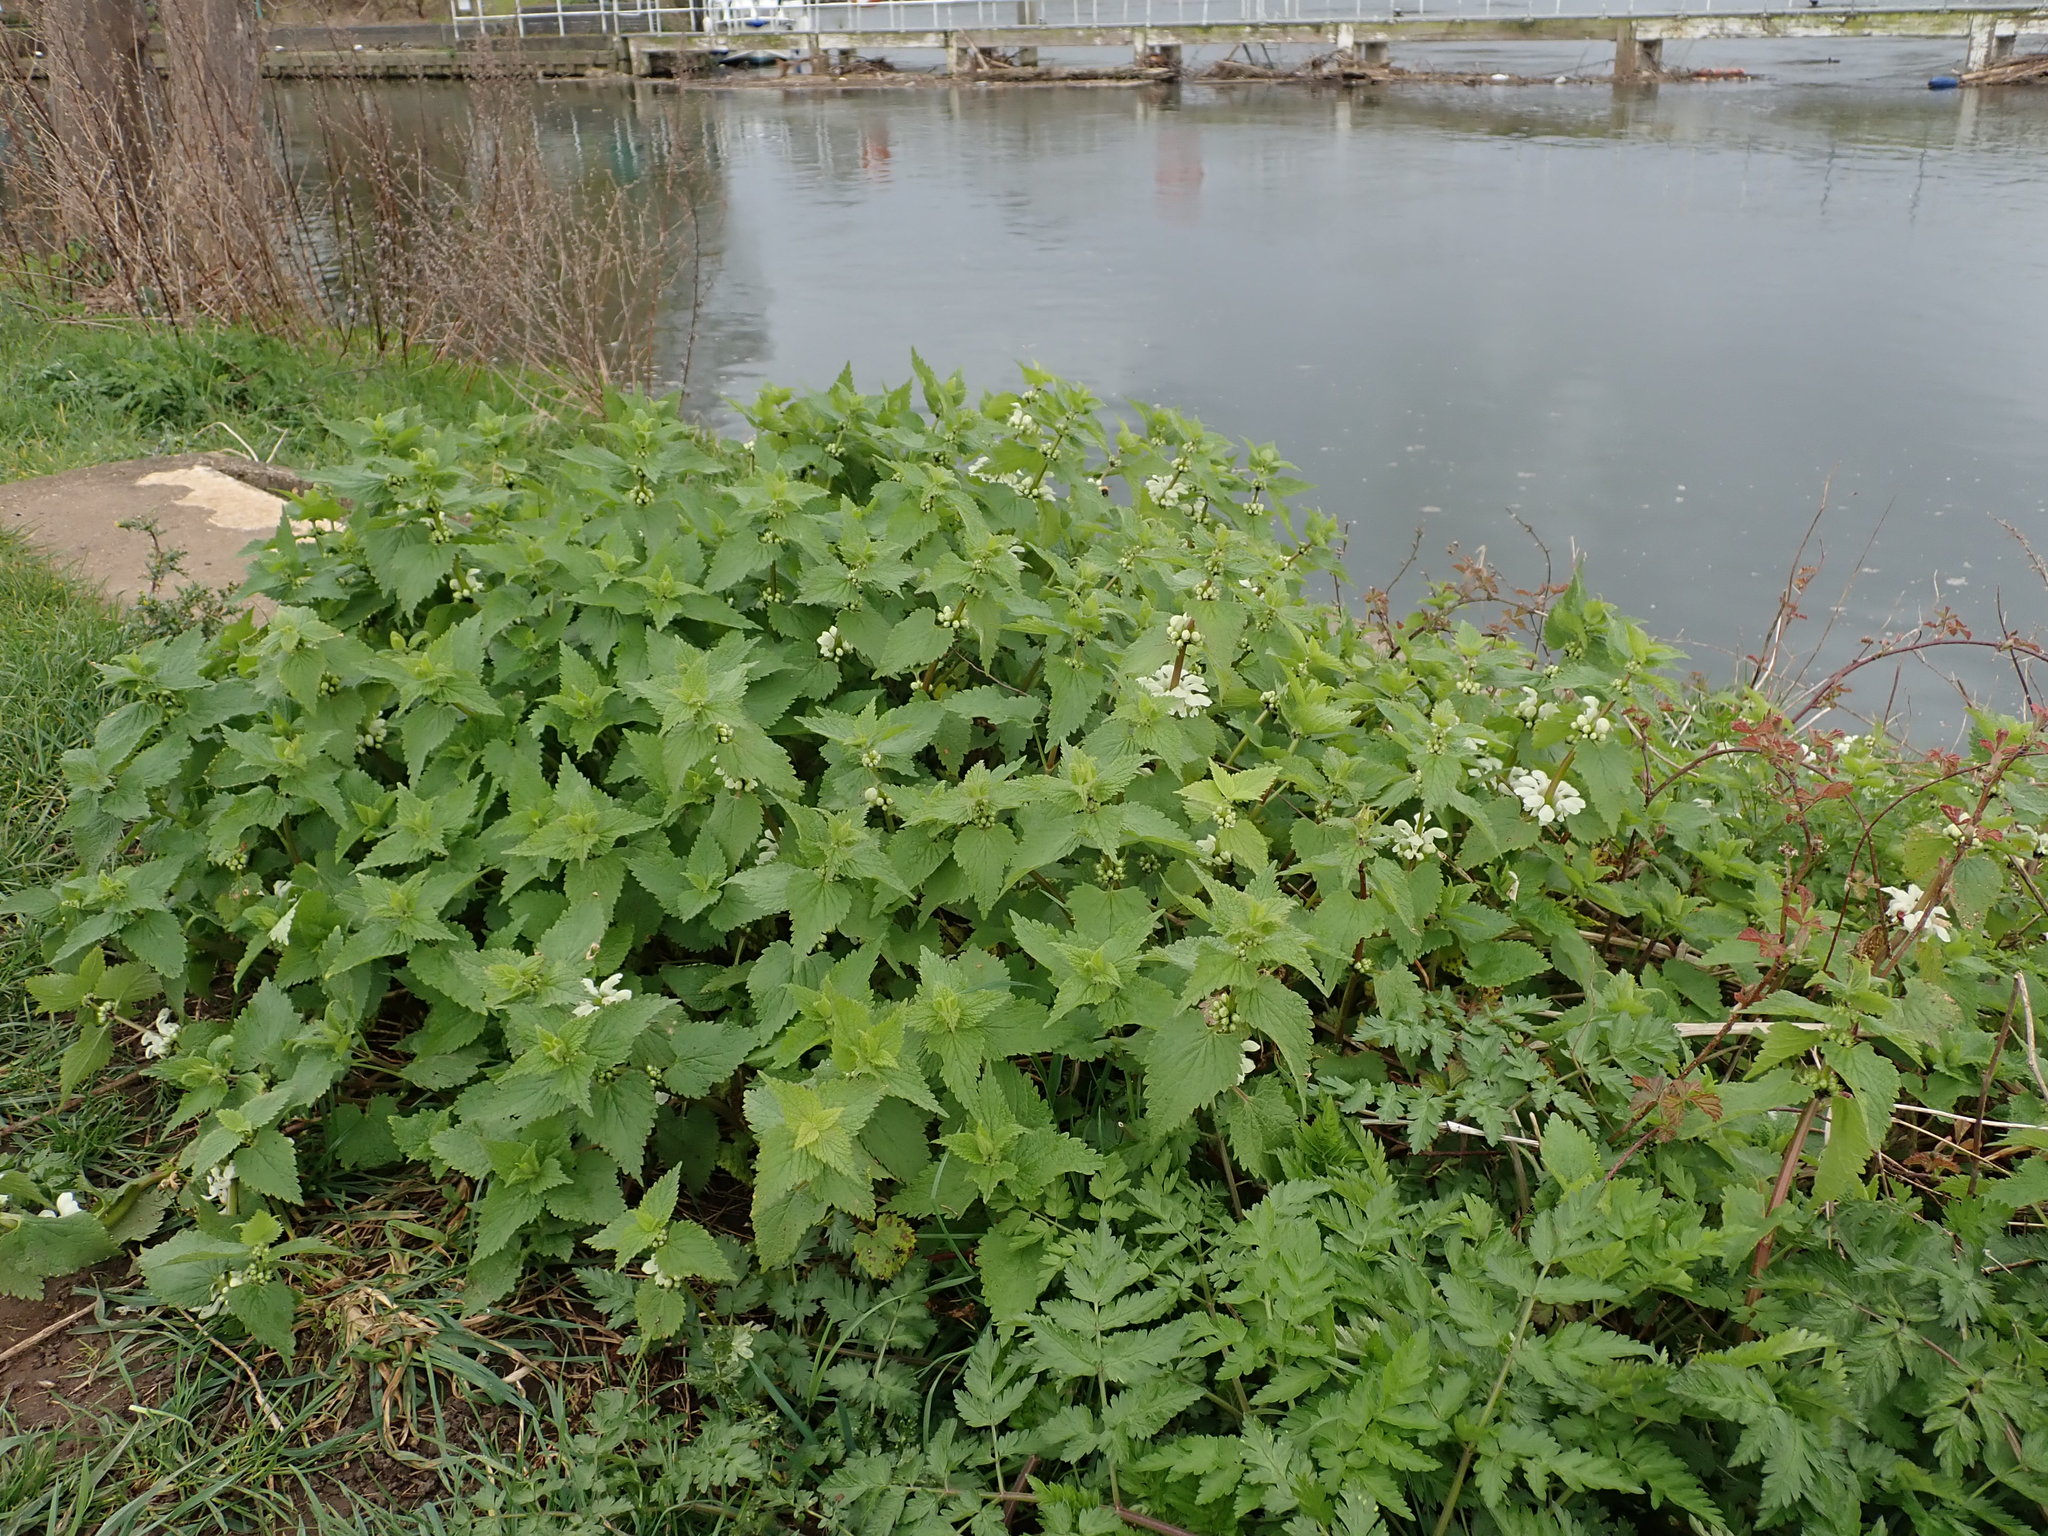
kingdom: Plantae
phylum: Tracheophyta
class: Magnoliopsida
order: Lamiales
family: Lamiaceae
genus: Lamium
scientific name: Lamium album
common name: White dead-nettle
